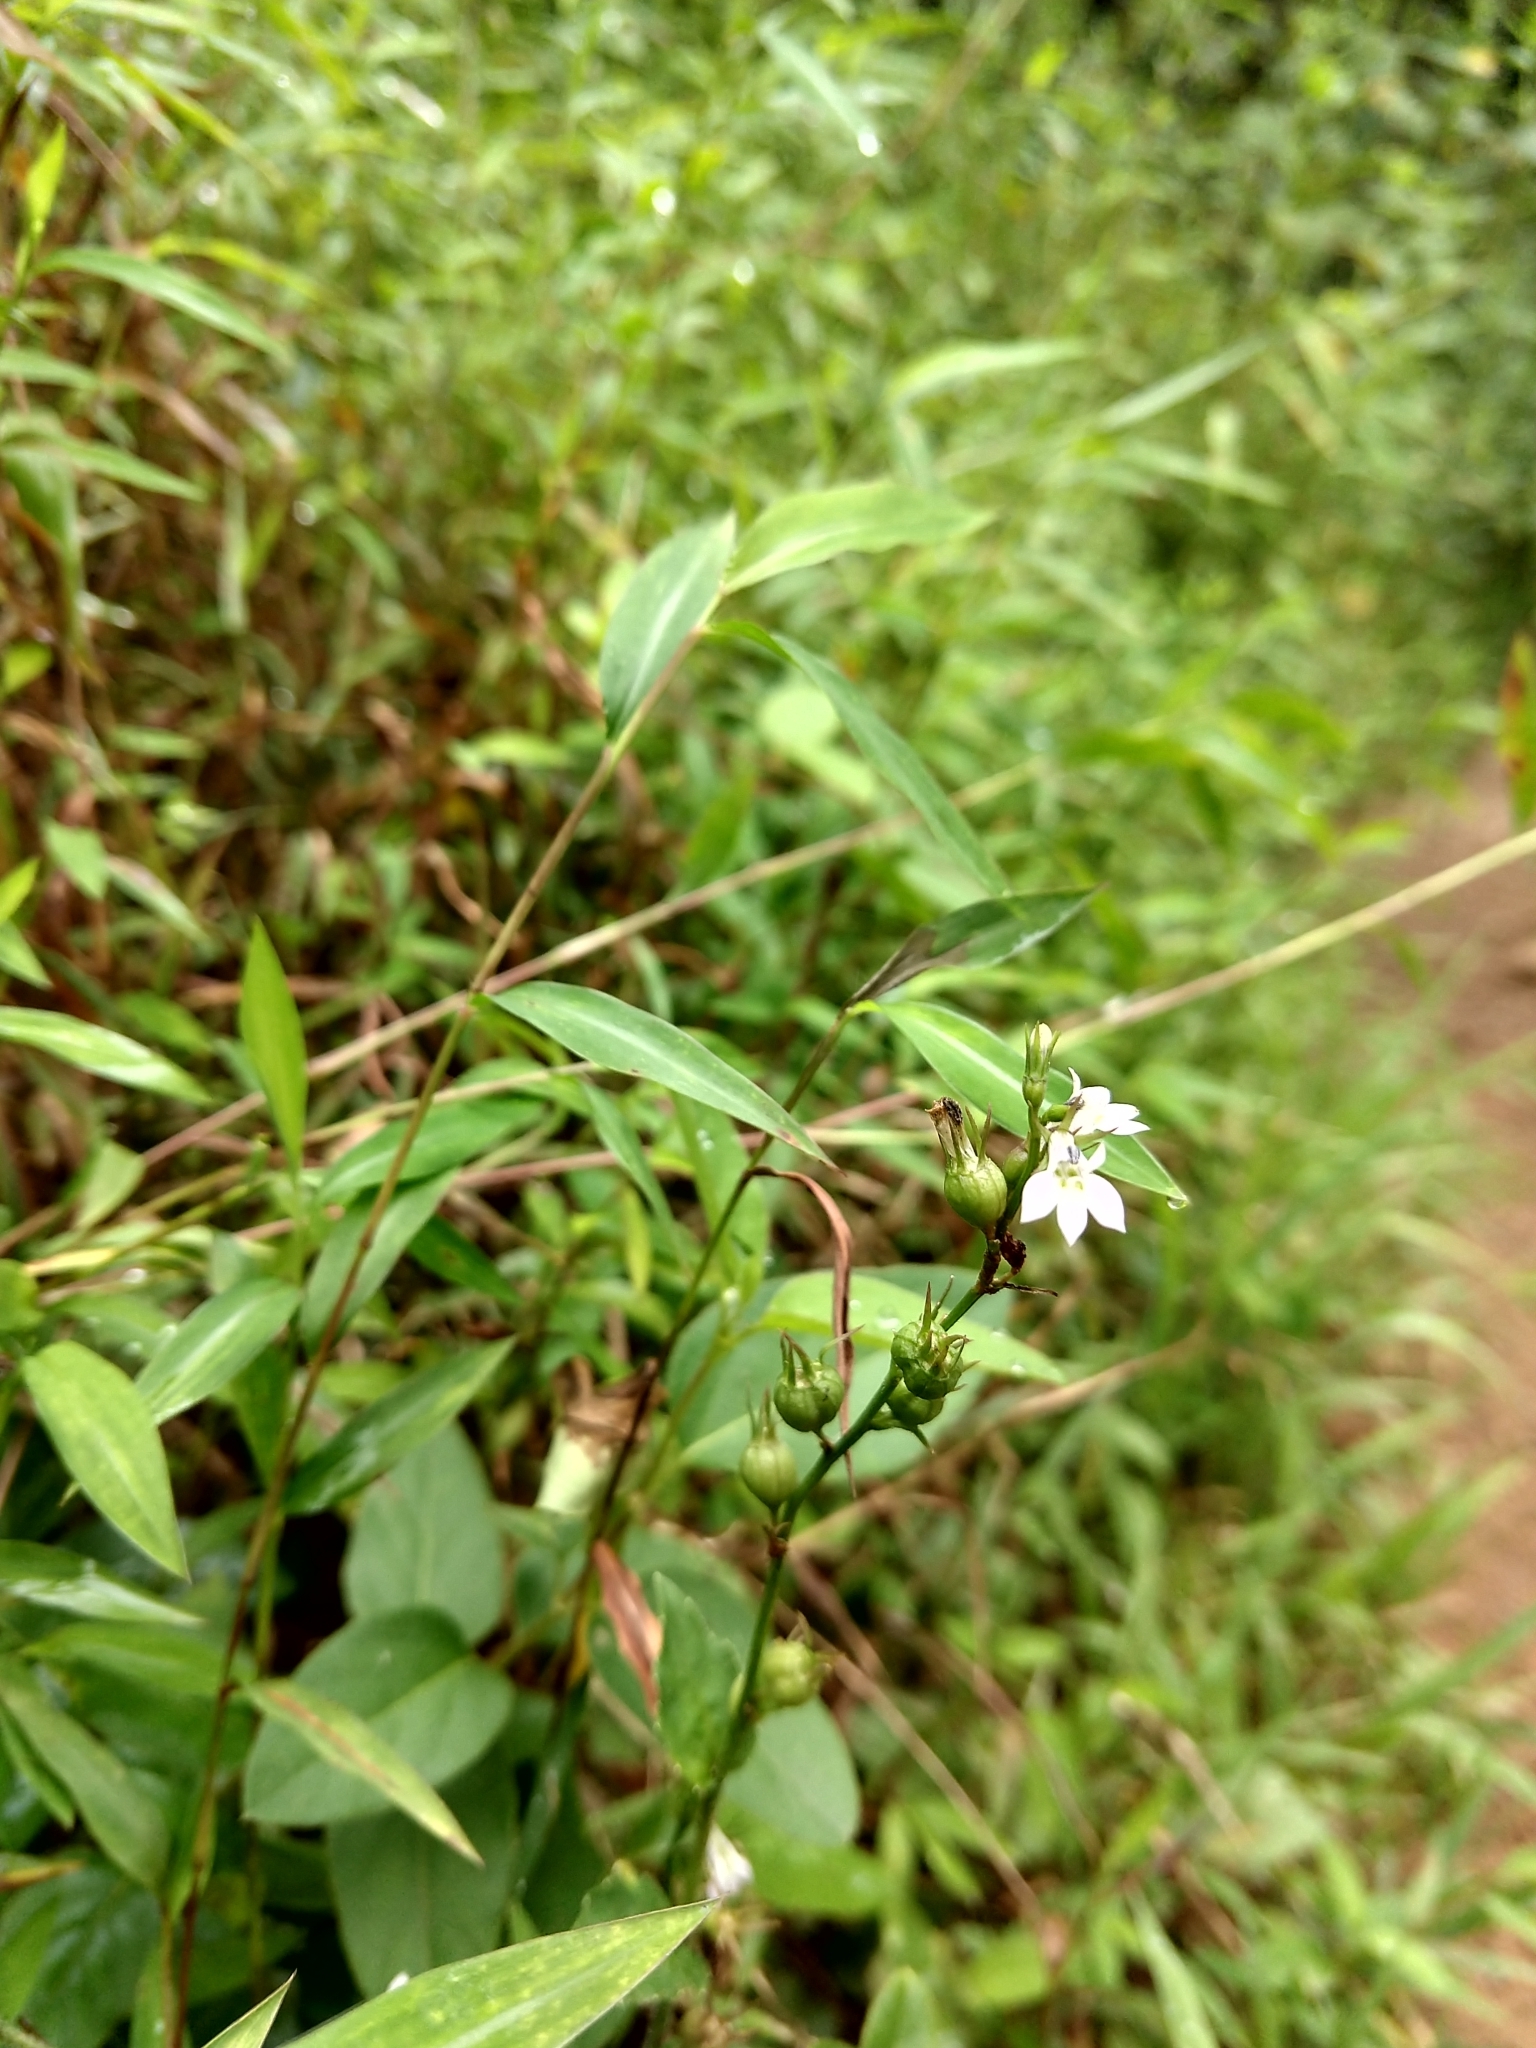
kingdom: Plantae
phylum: Tracheophyta
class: Magnoliopsida
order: Asterales
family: Campanulaceae
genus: Lobelia
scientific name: Lobelia inflata
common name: Indian tobacco
